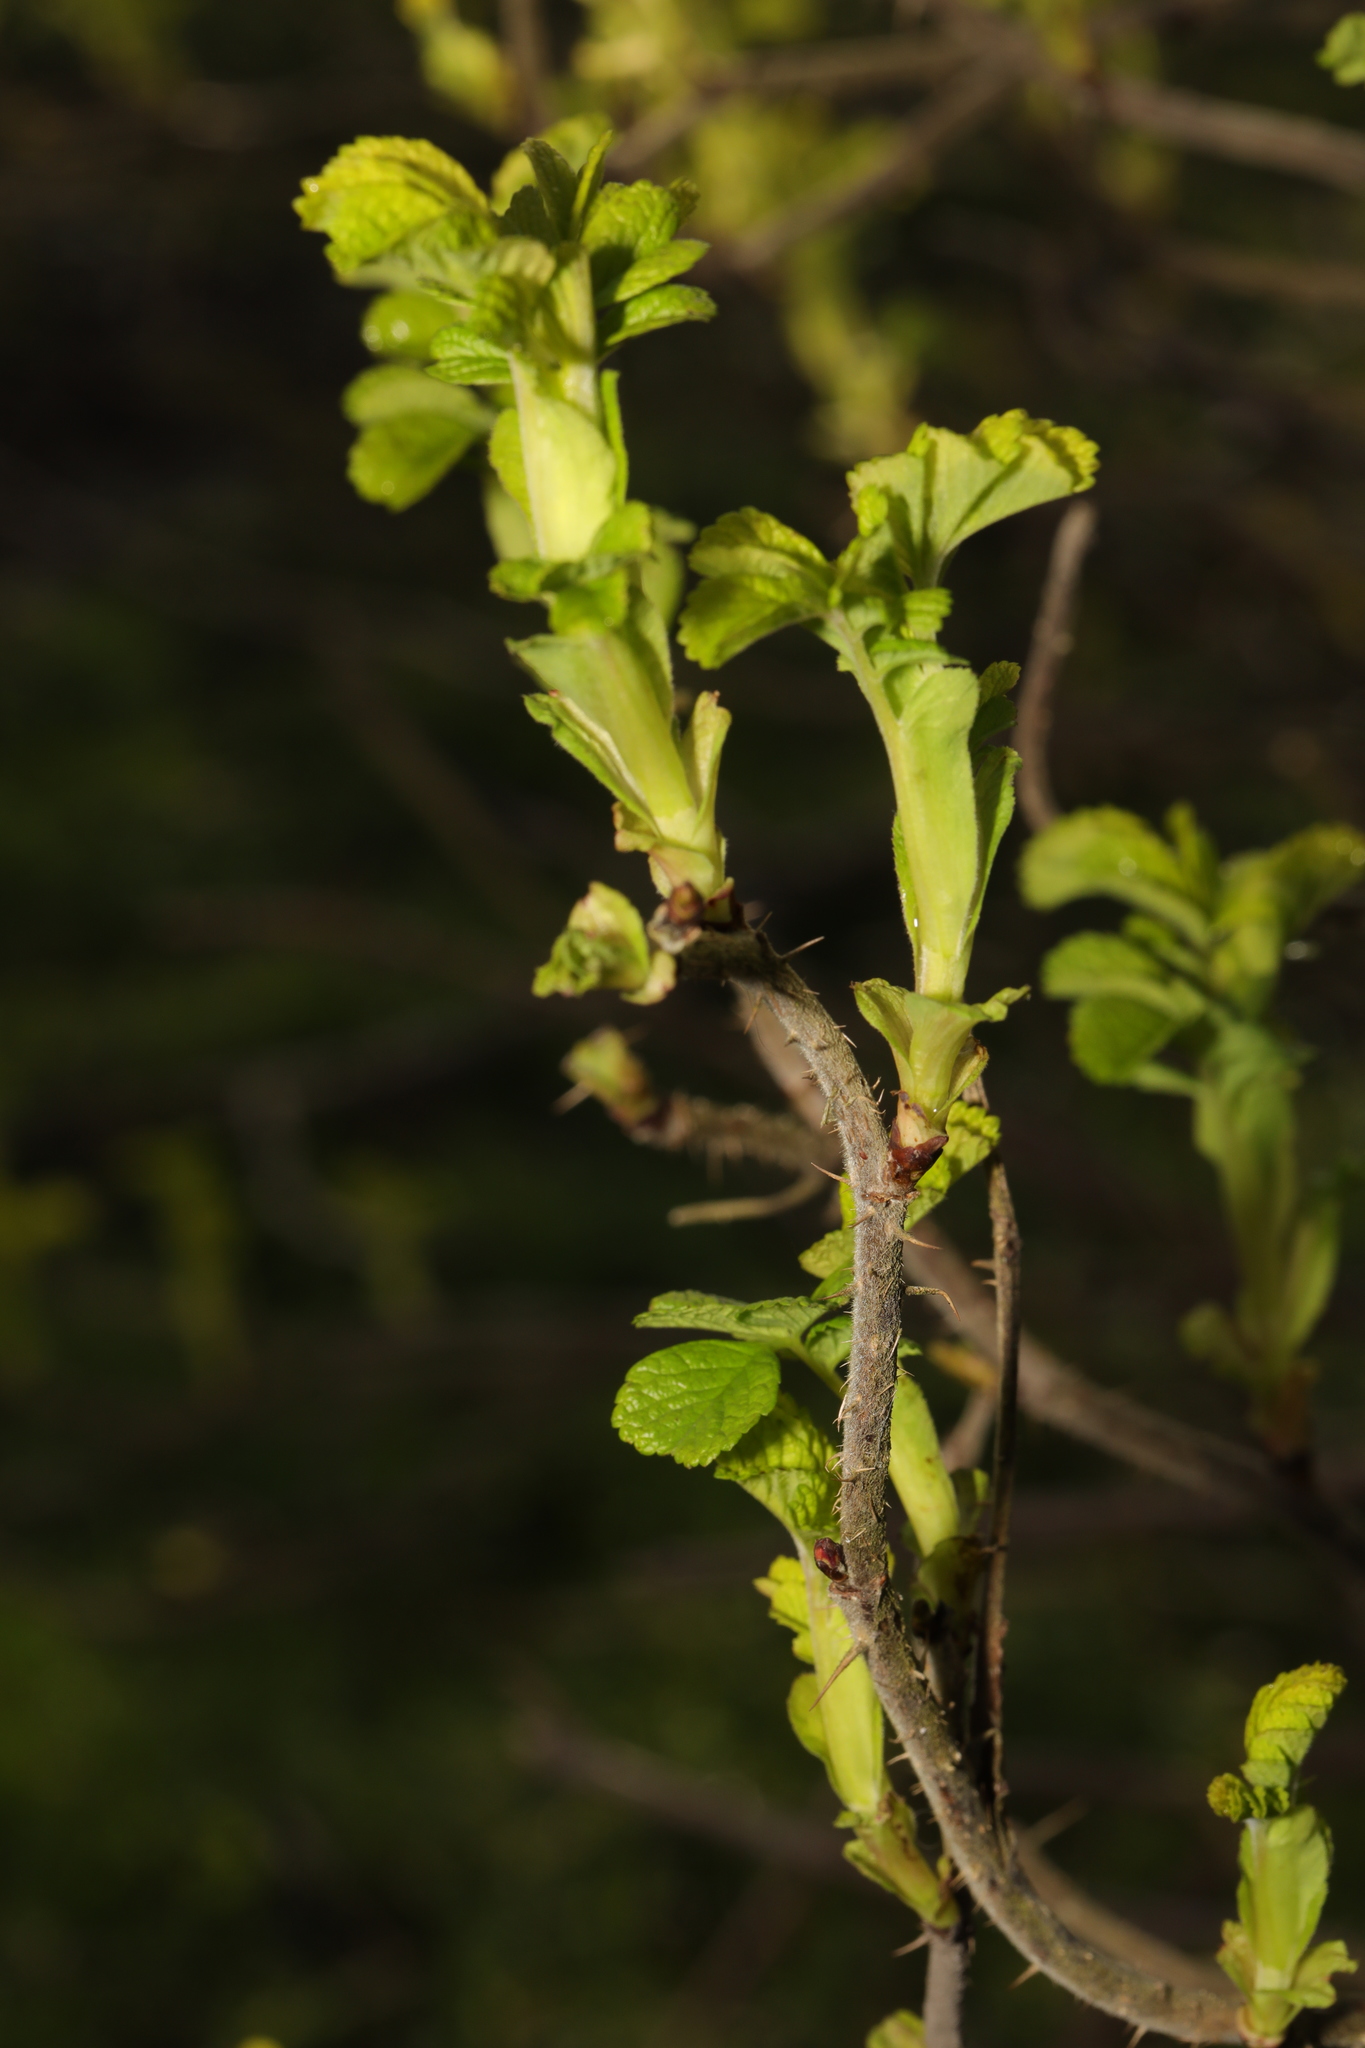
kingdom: Plantae
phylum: Tracheophyta
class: Magnoliopsida
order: Rosales
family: Rosaceae
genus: Rosa
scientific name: Rosa rugosa
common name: Japanese rose
